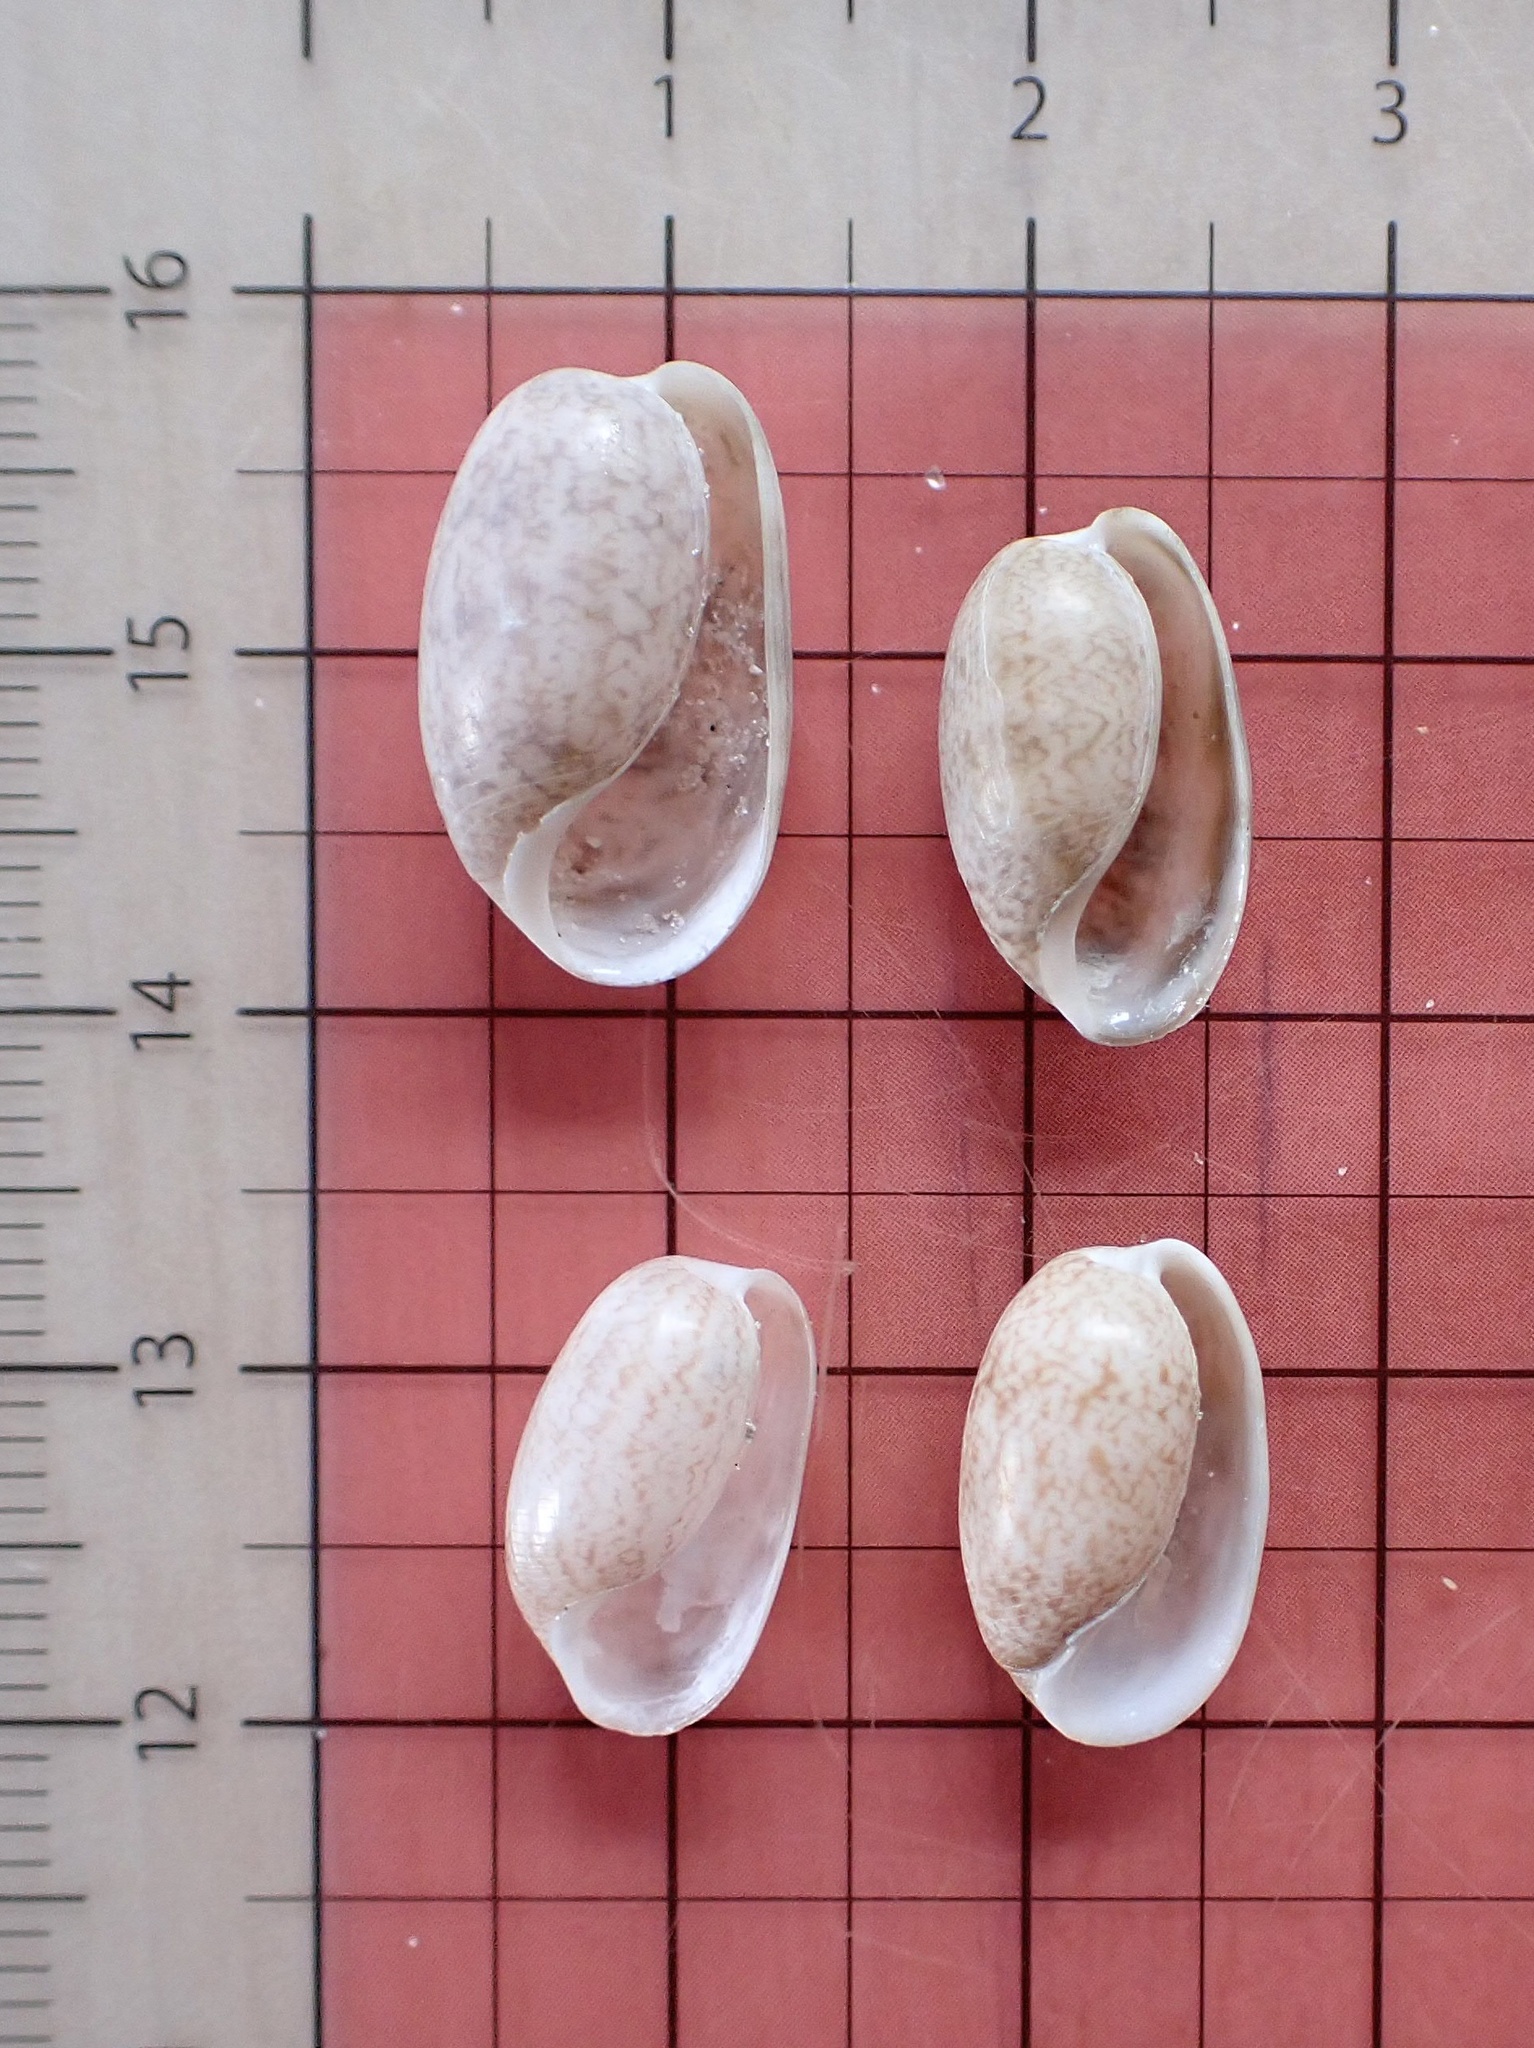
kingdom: Animalia
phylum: Mollusca
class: Gastropoda
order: Cephalaspidea
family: Bullidae
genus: Bulla
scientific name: Bulla occidentalis
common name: Common west-indian bubble
